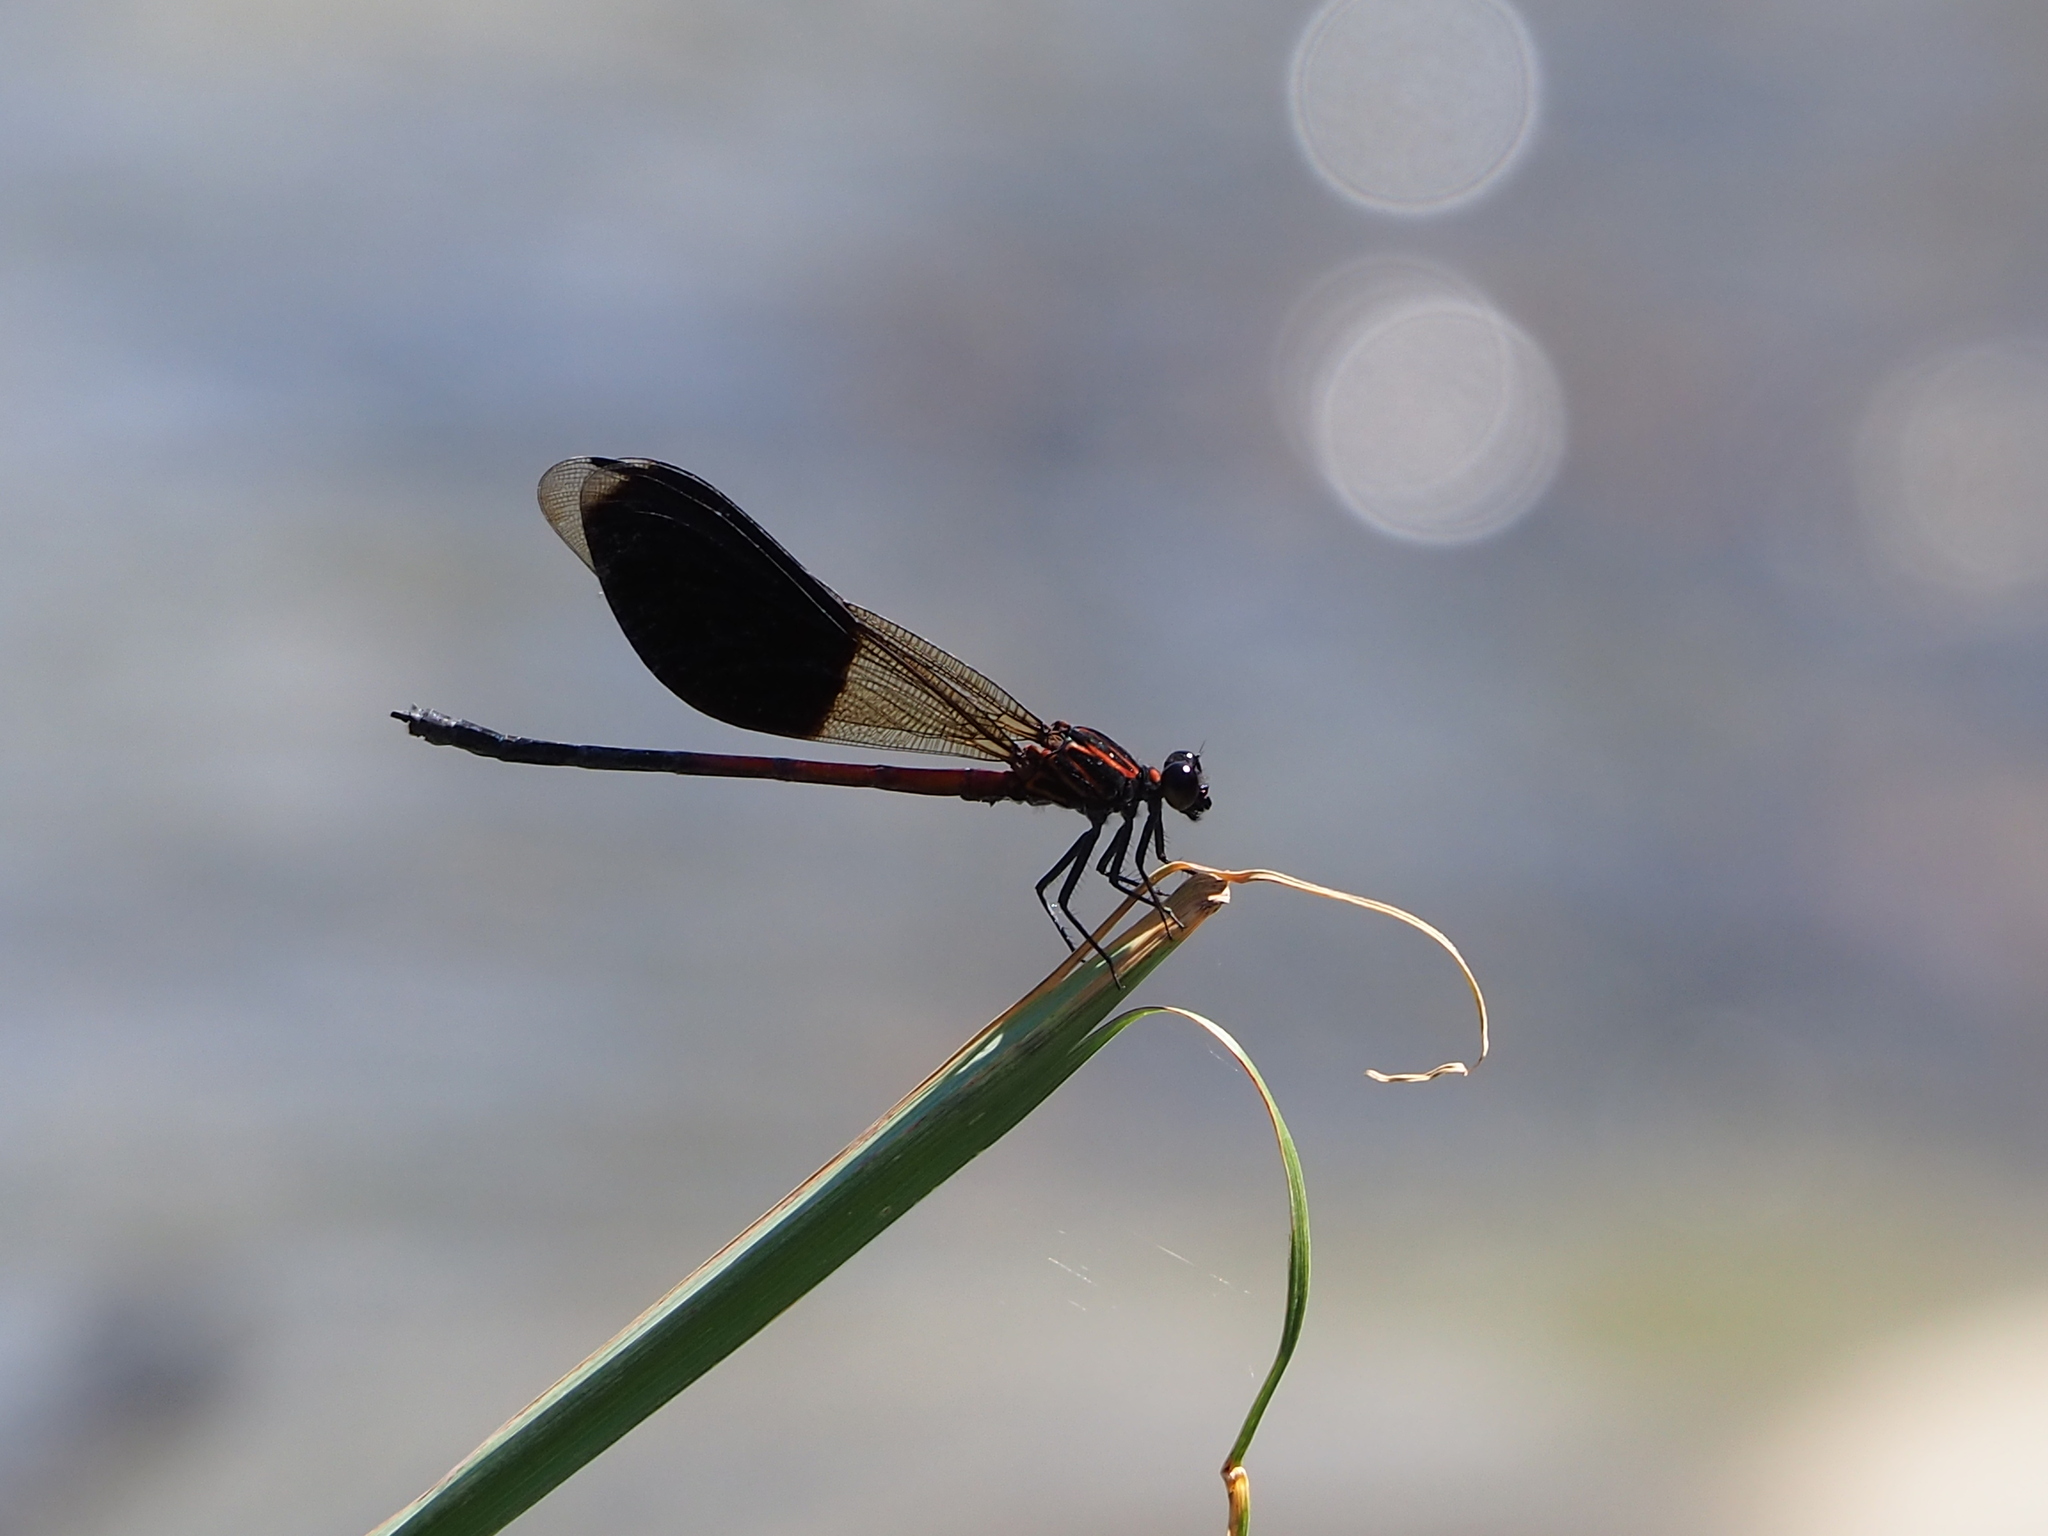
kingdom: Animalia
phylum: Arthropoda
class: Insecta
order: Odonata
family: Euphaeidae
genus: Euphaea
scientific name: Euphaea formosa
